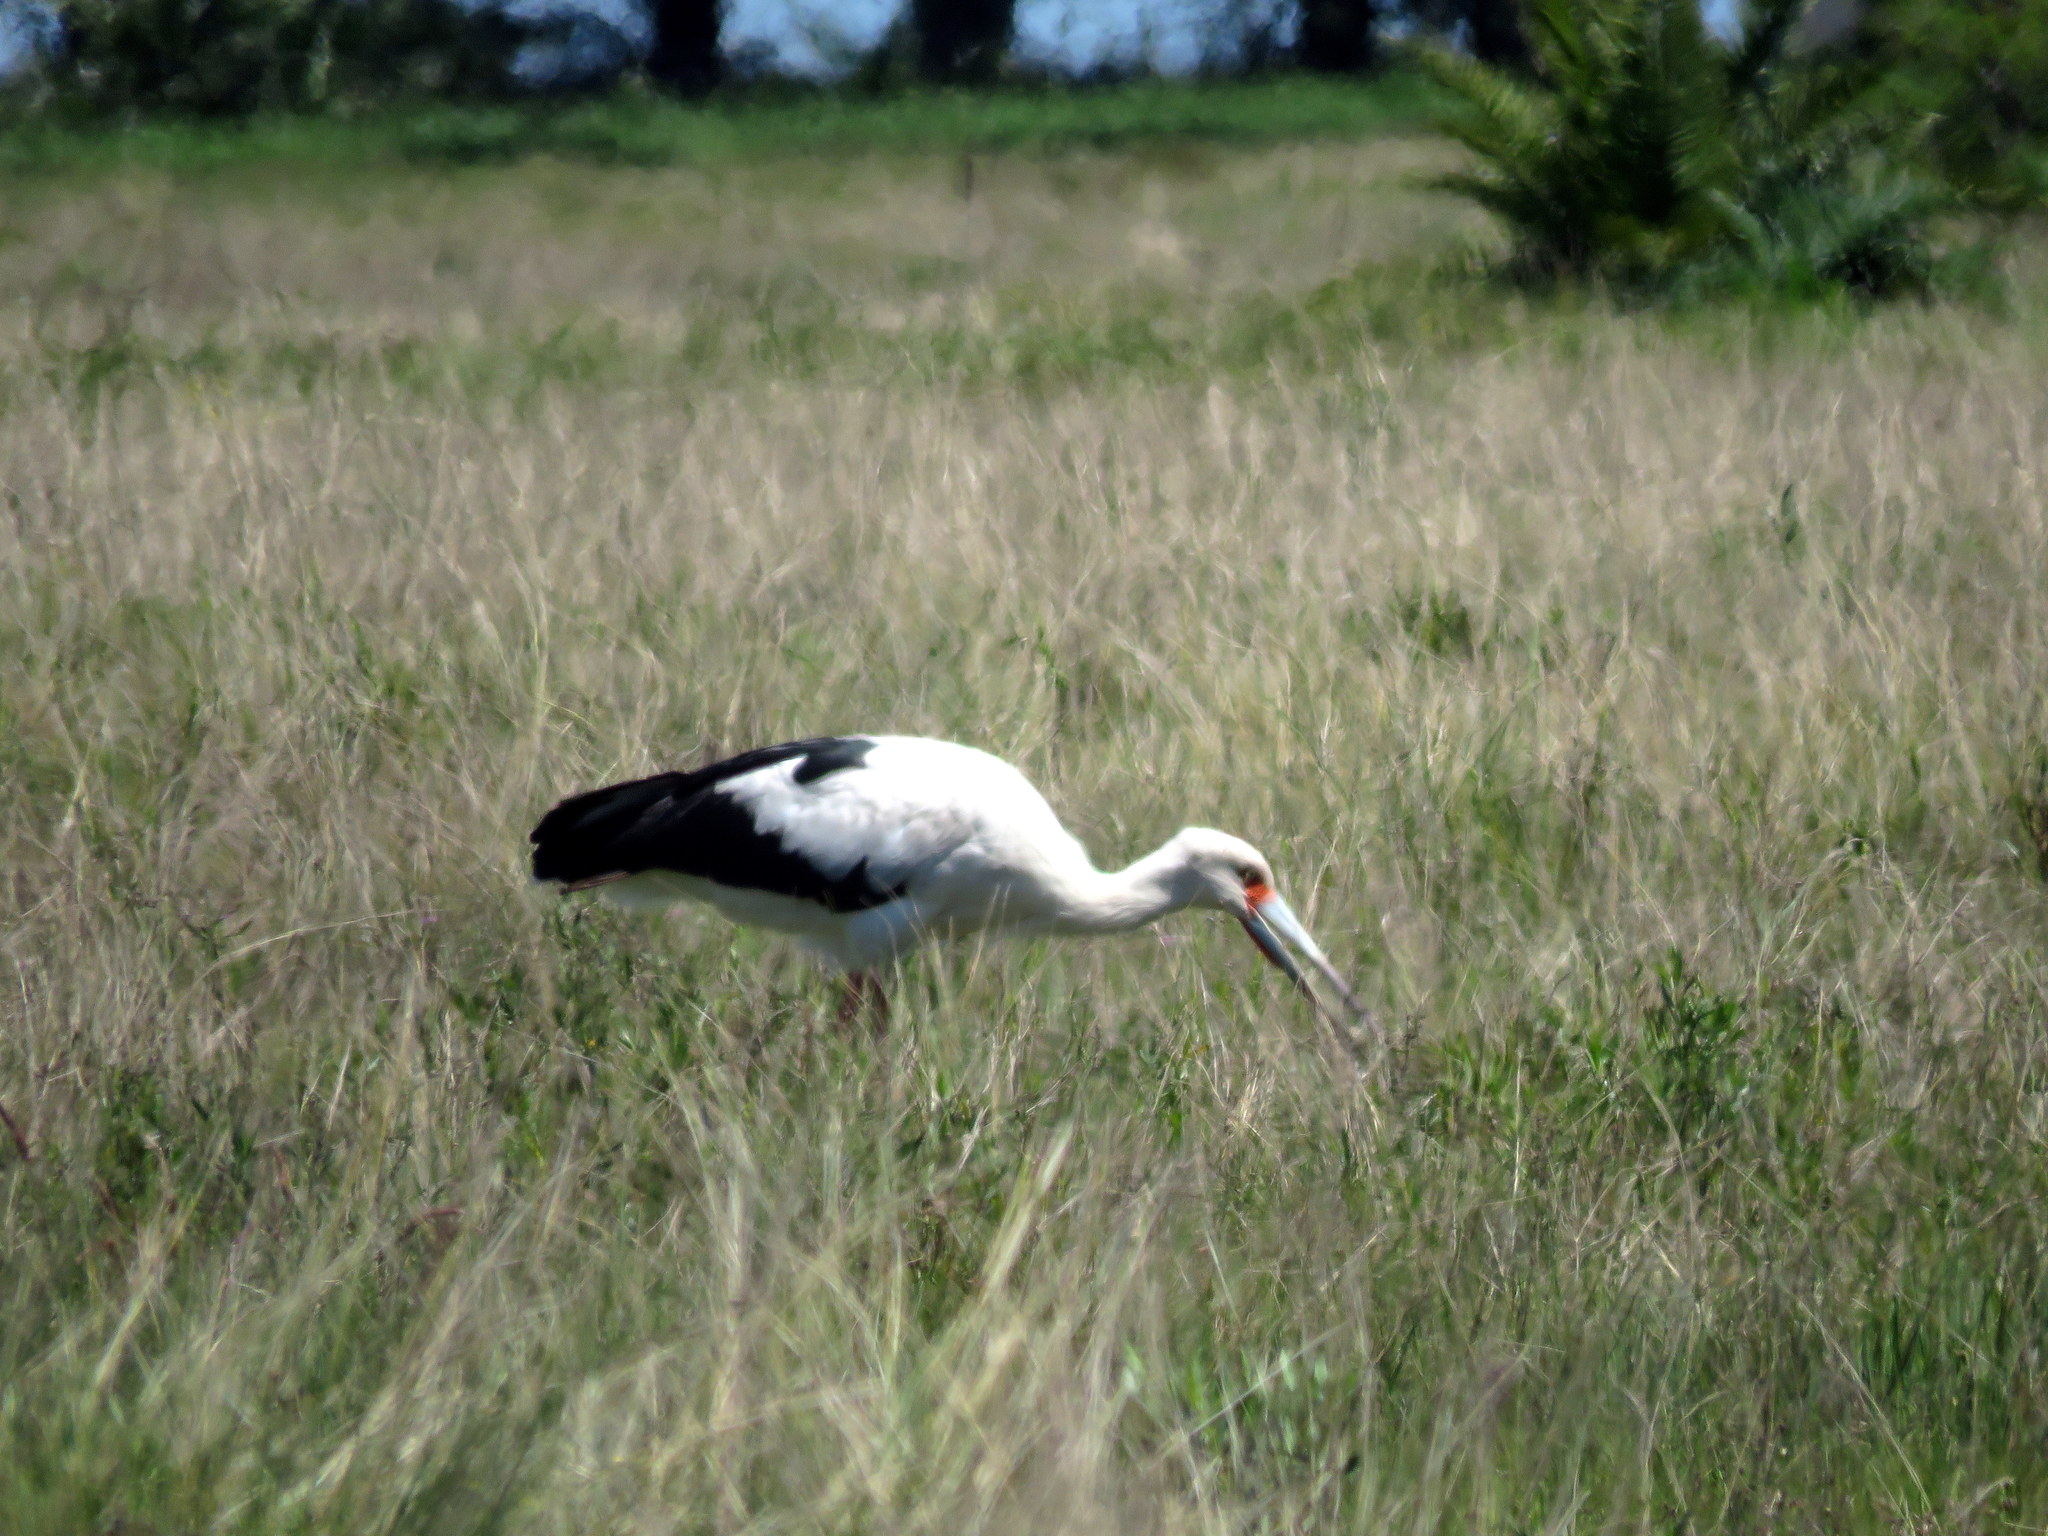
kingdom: Animalia
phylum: Chordata
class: Aves
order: Ciconiiformes
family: Ciconiidae
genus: Ciconia
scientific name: Ciconia maguari
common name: Maguari stork
